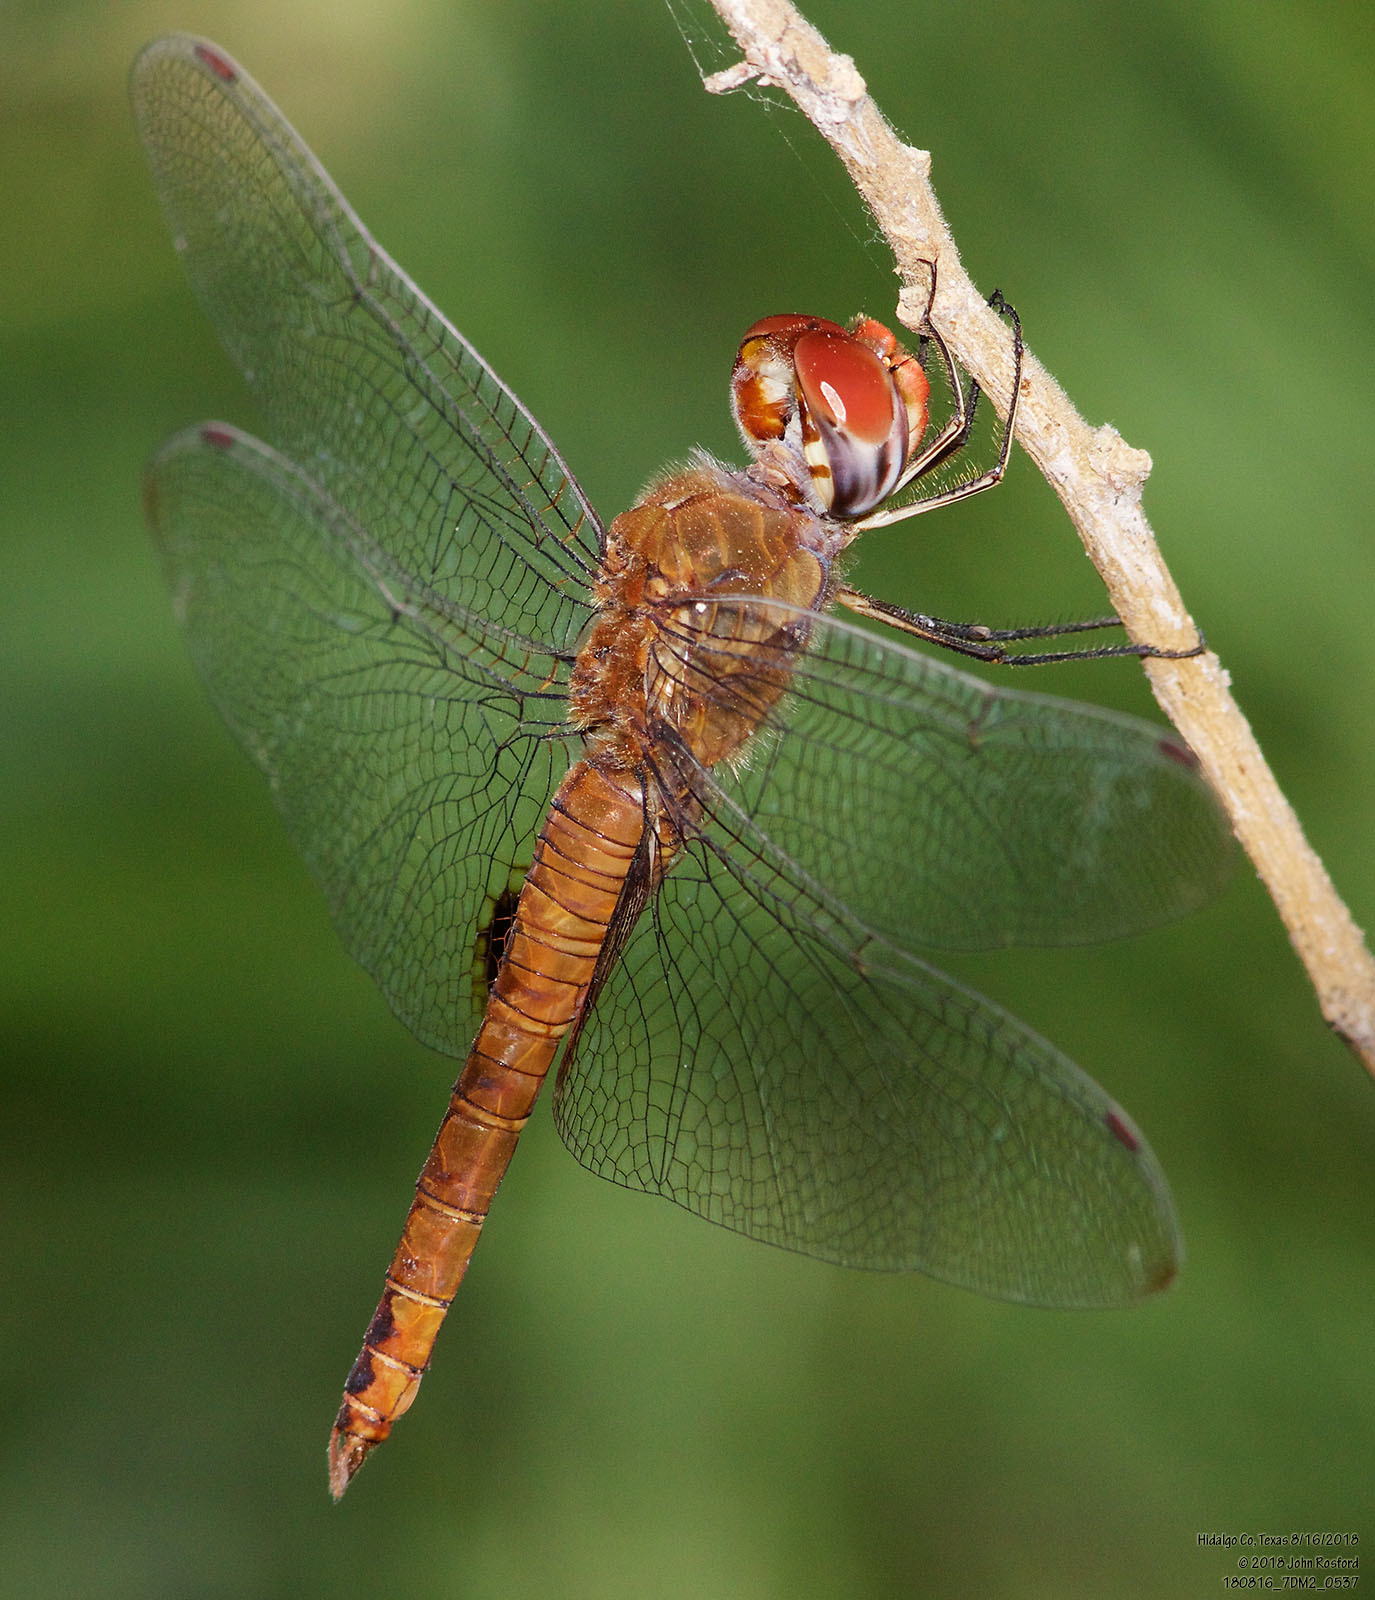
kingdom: Animalia
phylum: Arthropoda
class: Insecta
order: Odonata
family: Libellulidae
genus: Pantala
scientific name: Pantala hymenaea
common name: Spot-winged glider
